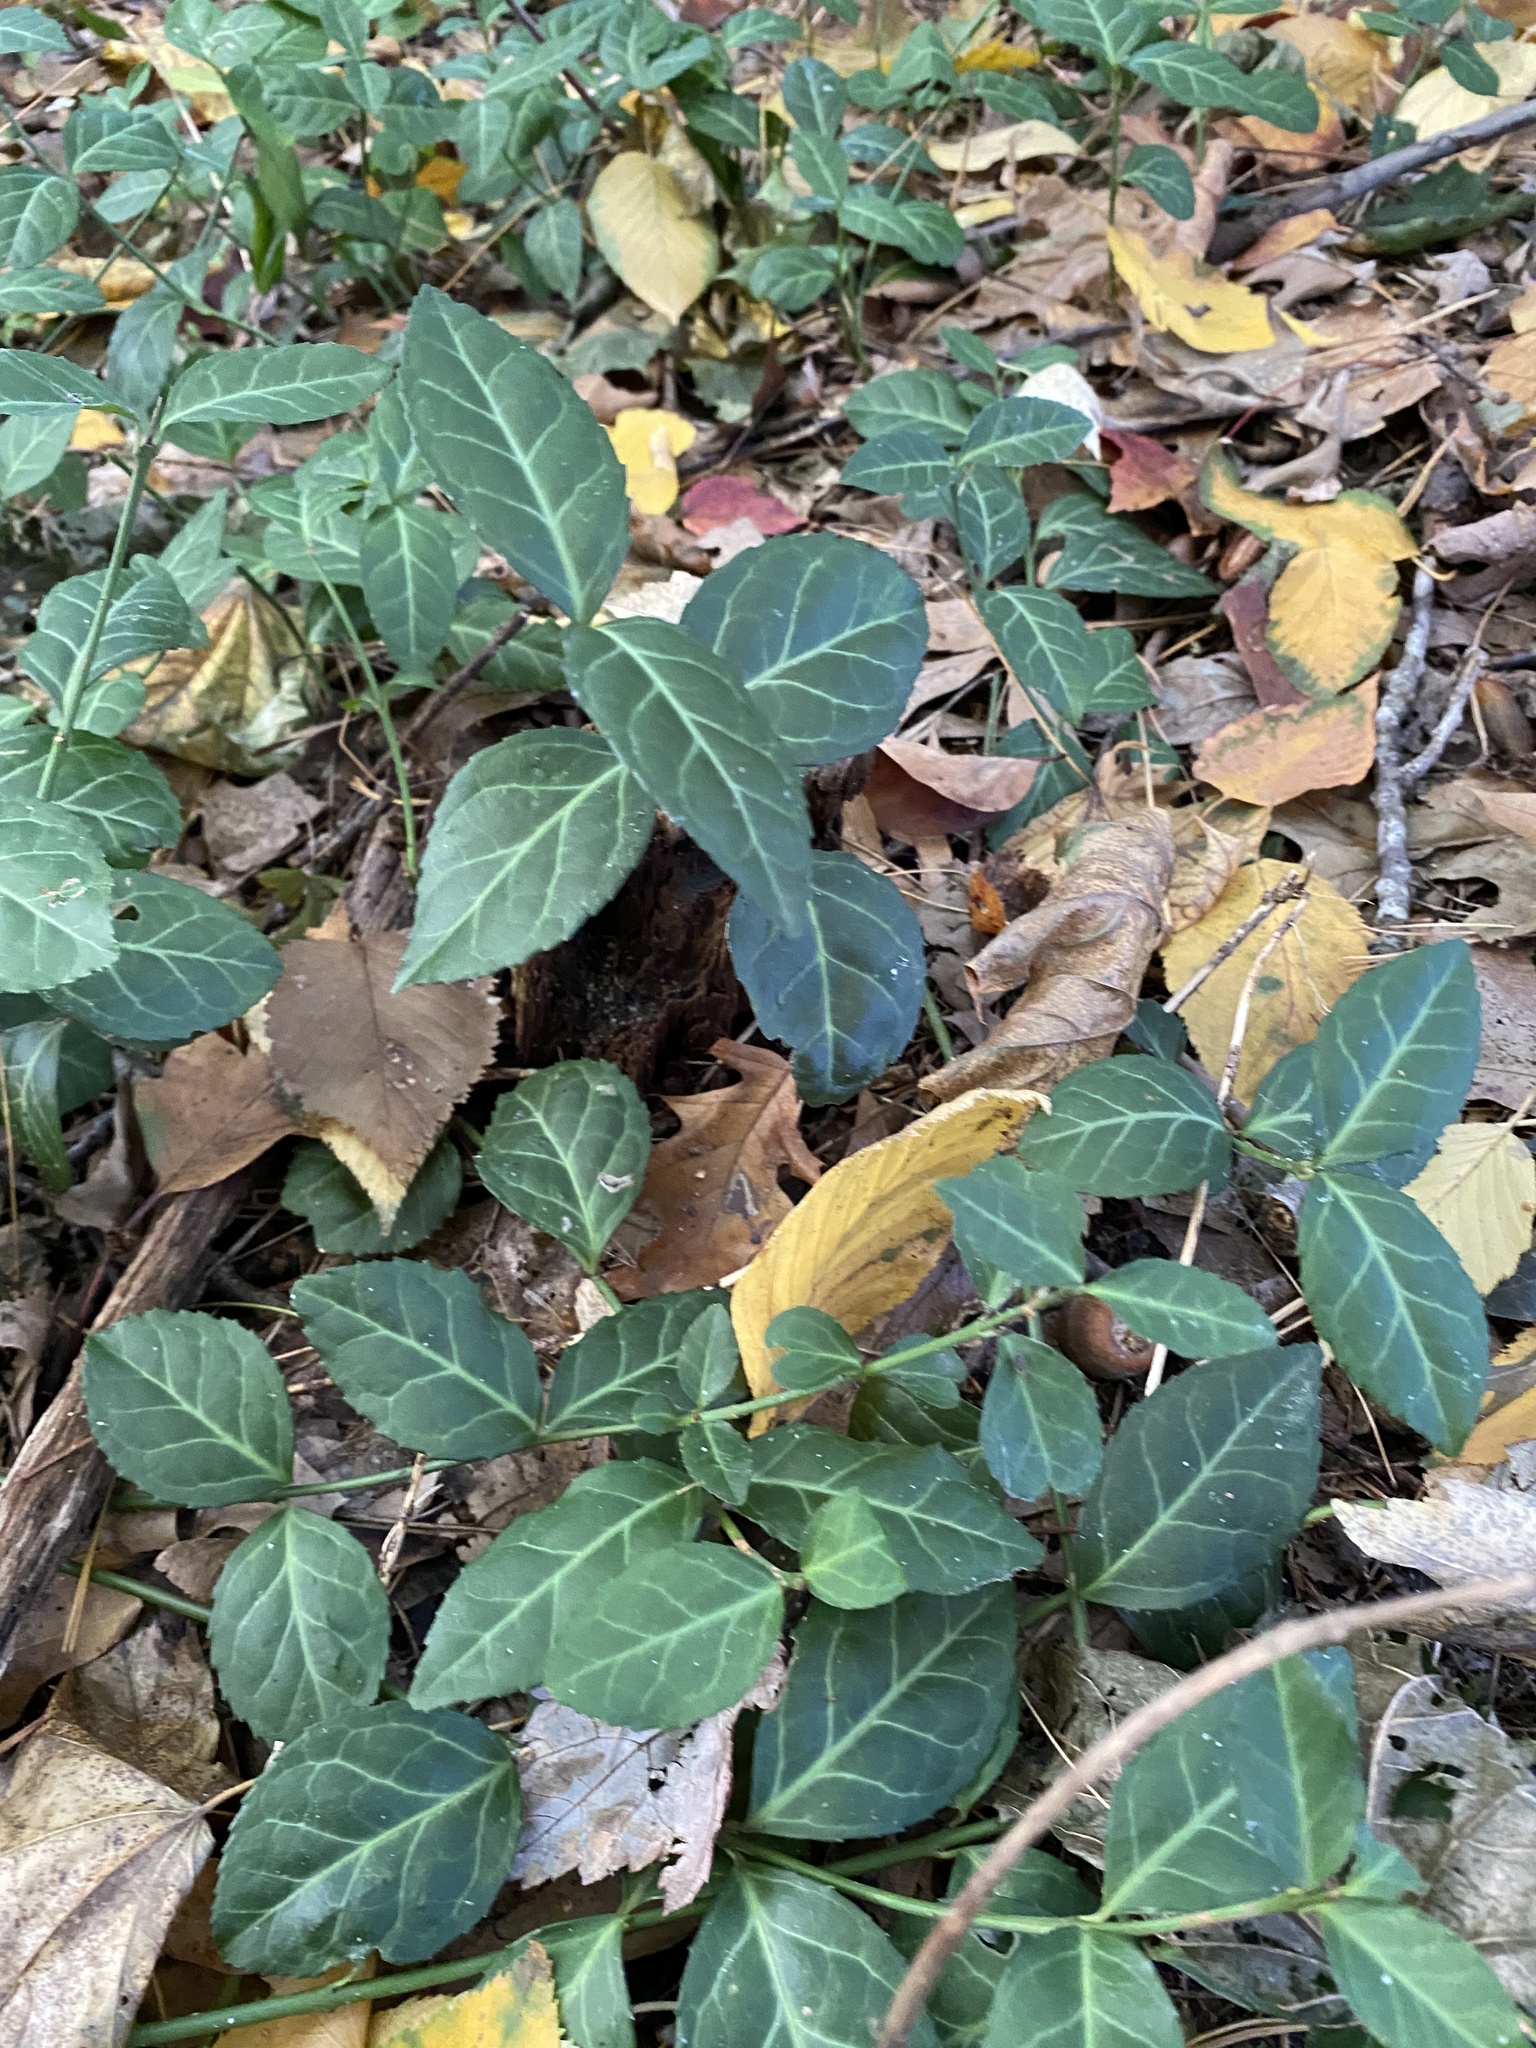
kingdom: Plantae
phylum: Tracheophyta
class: Magnoliopsida
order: Celastrales
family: Celastraceae
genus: Euonymus
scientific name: Euonymus fortunei
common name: Climbing euonymus
